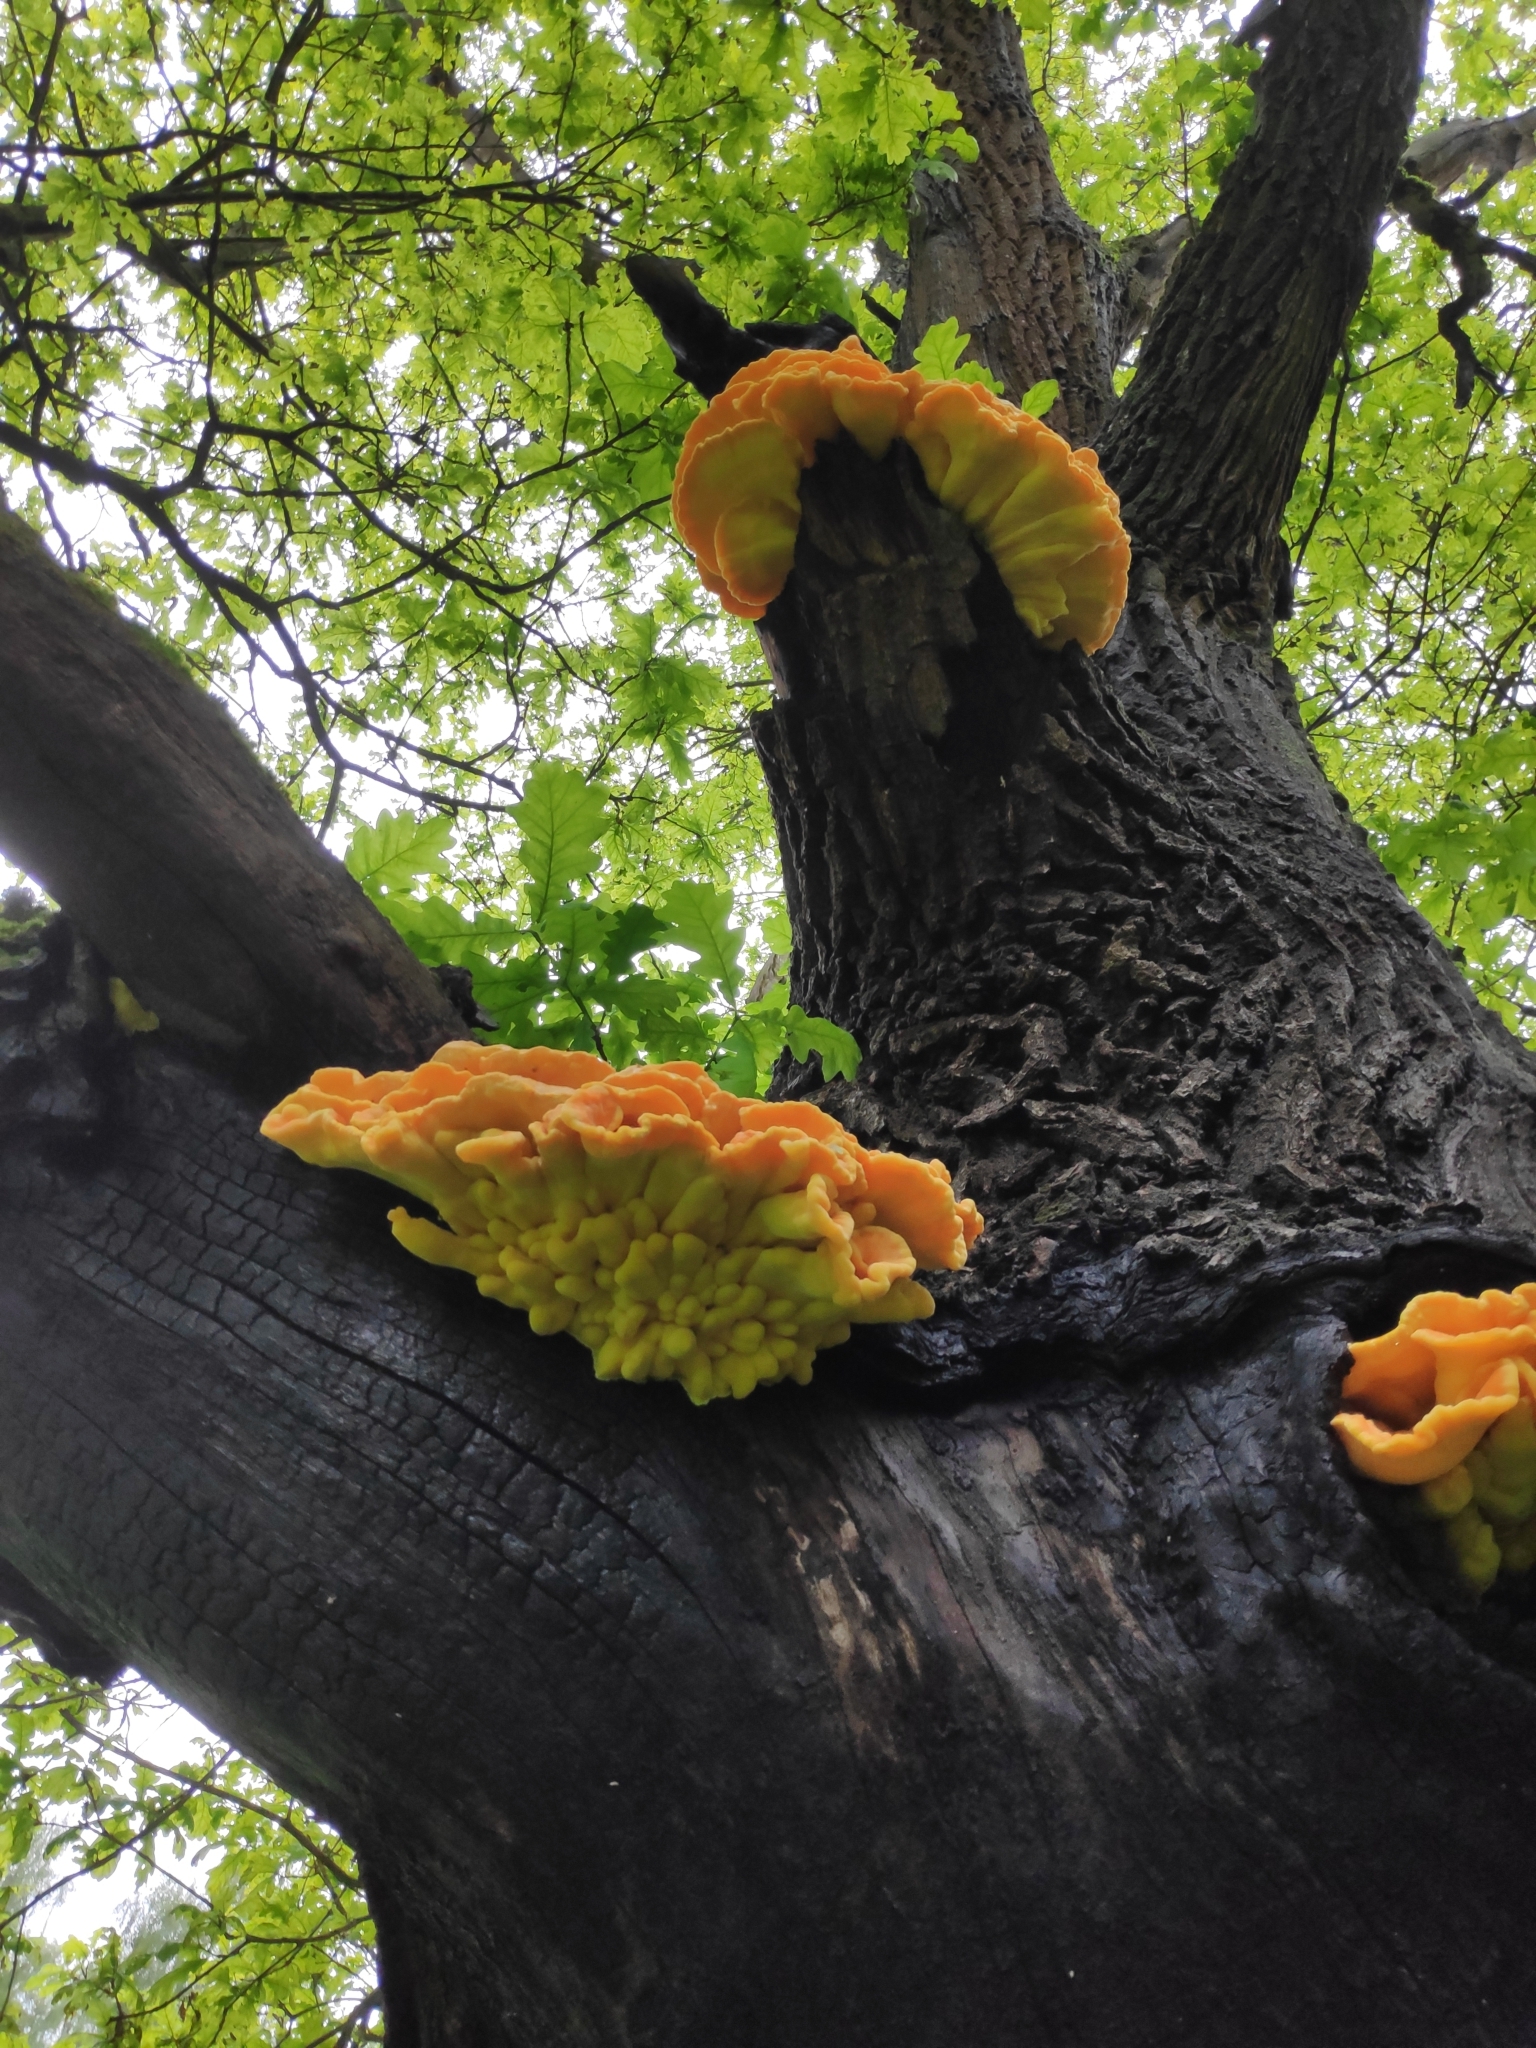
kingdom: Fungi
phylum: Basidiomycota
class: Agaricomycetes
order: Polyporales
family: Laetiporaceae
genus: Laetiporus
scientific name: Laetiporus sulphureus
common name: Chicken of the woods
